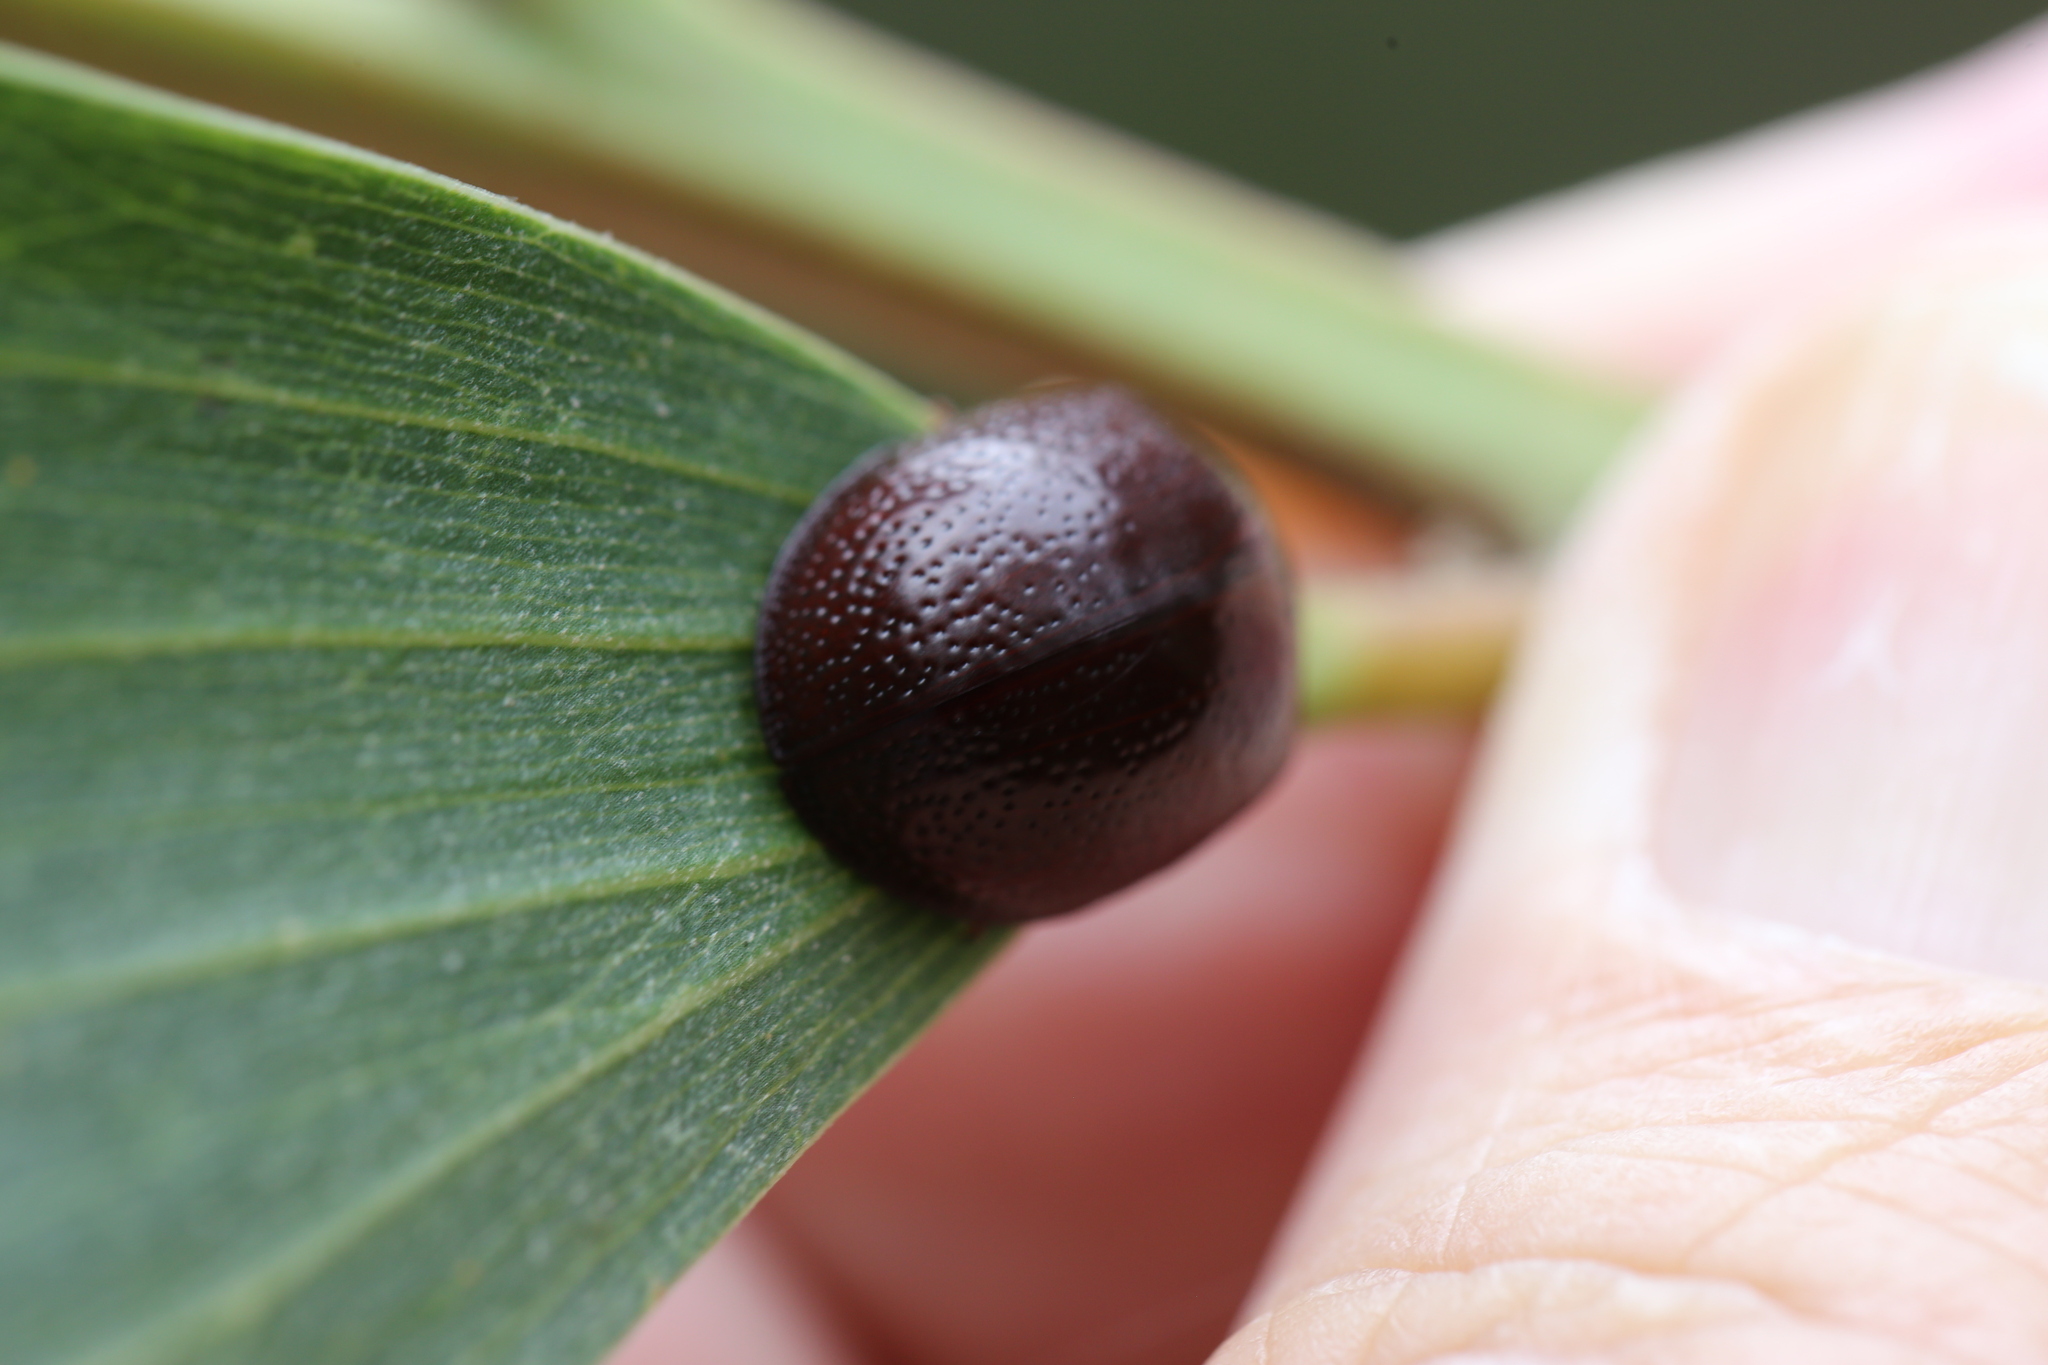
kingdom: Animalia
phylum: Arthropoda
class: Insecta
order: Coleoptera
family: Chrysomelidae
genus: Dicranosterna
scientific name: Dicranosterna
